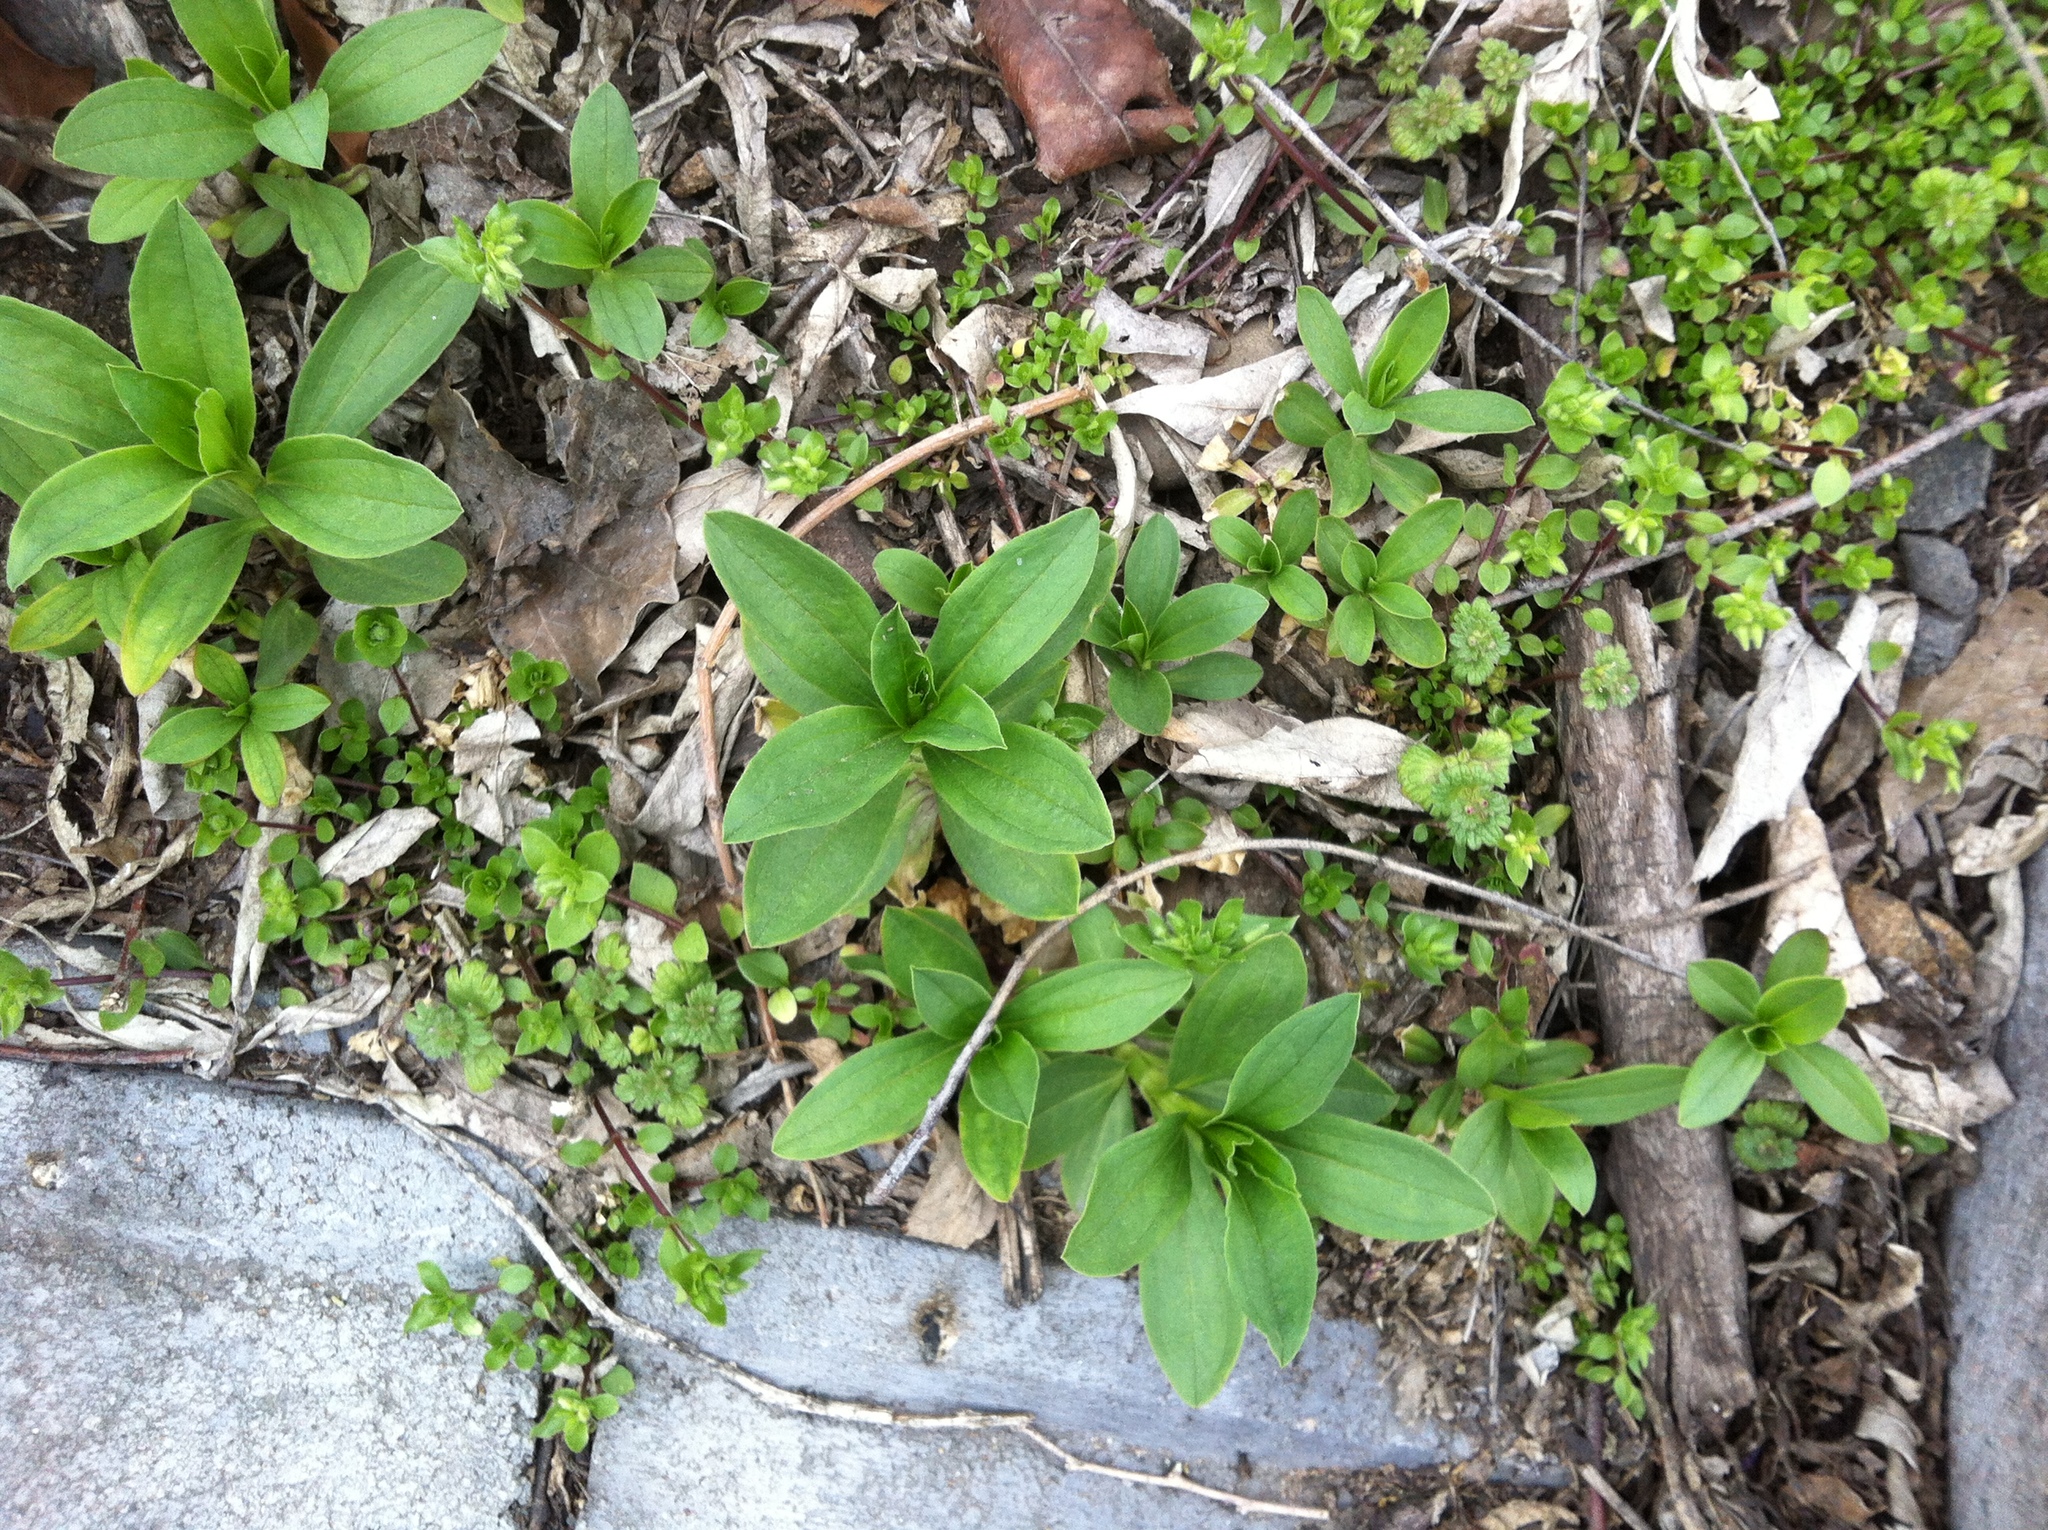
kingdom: Plantae
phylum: Tracheophyta
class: Magnoliopsida
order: Caryophyllales
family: Caryophyllaceae
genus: Saponaria
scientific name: Saponaria officinalis
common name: Soapwort
